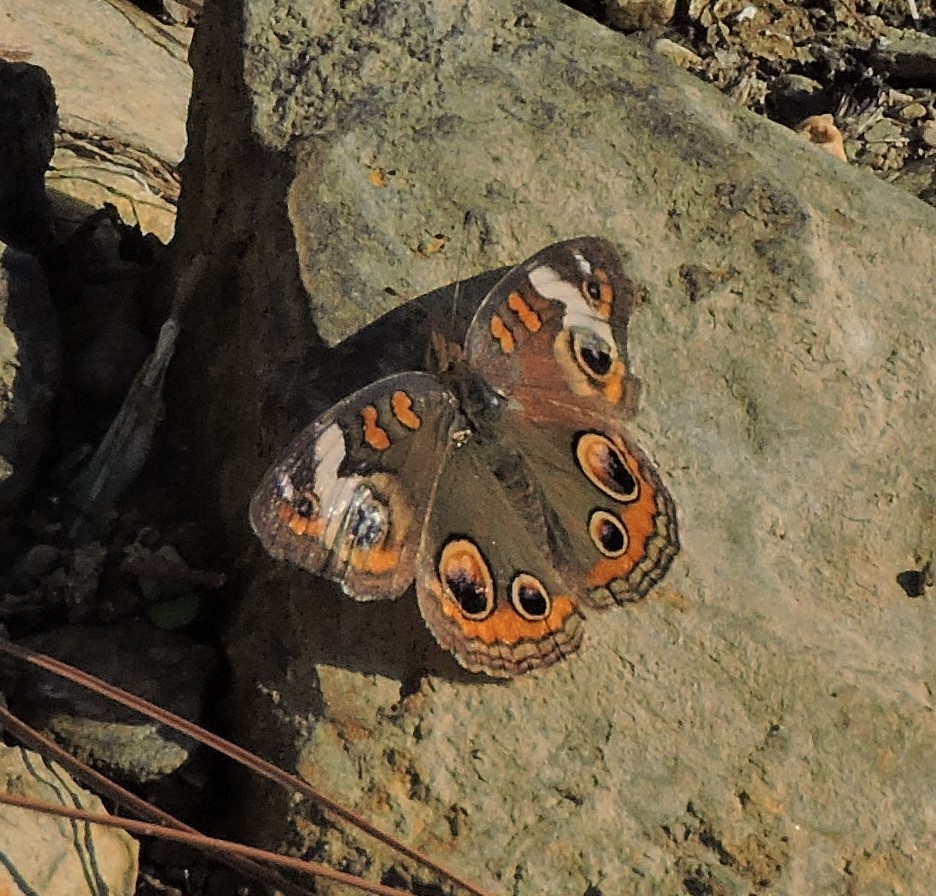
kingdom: Animalia
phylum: Arthropoda
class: Insecta
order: Lepidoptera
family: Nymphalidae
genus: Junonia
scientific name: Junonia coenia
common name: Common buckeye
